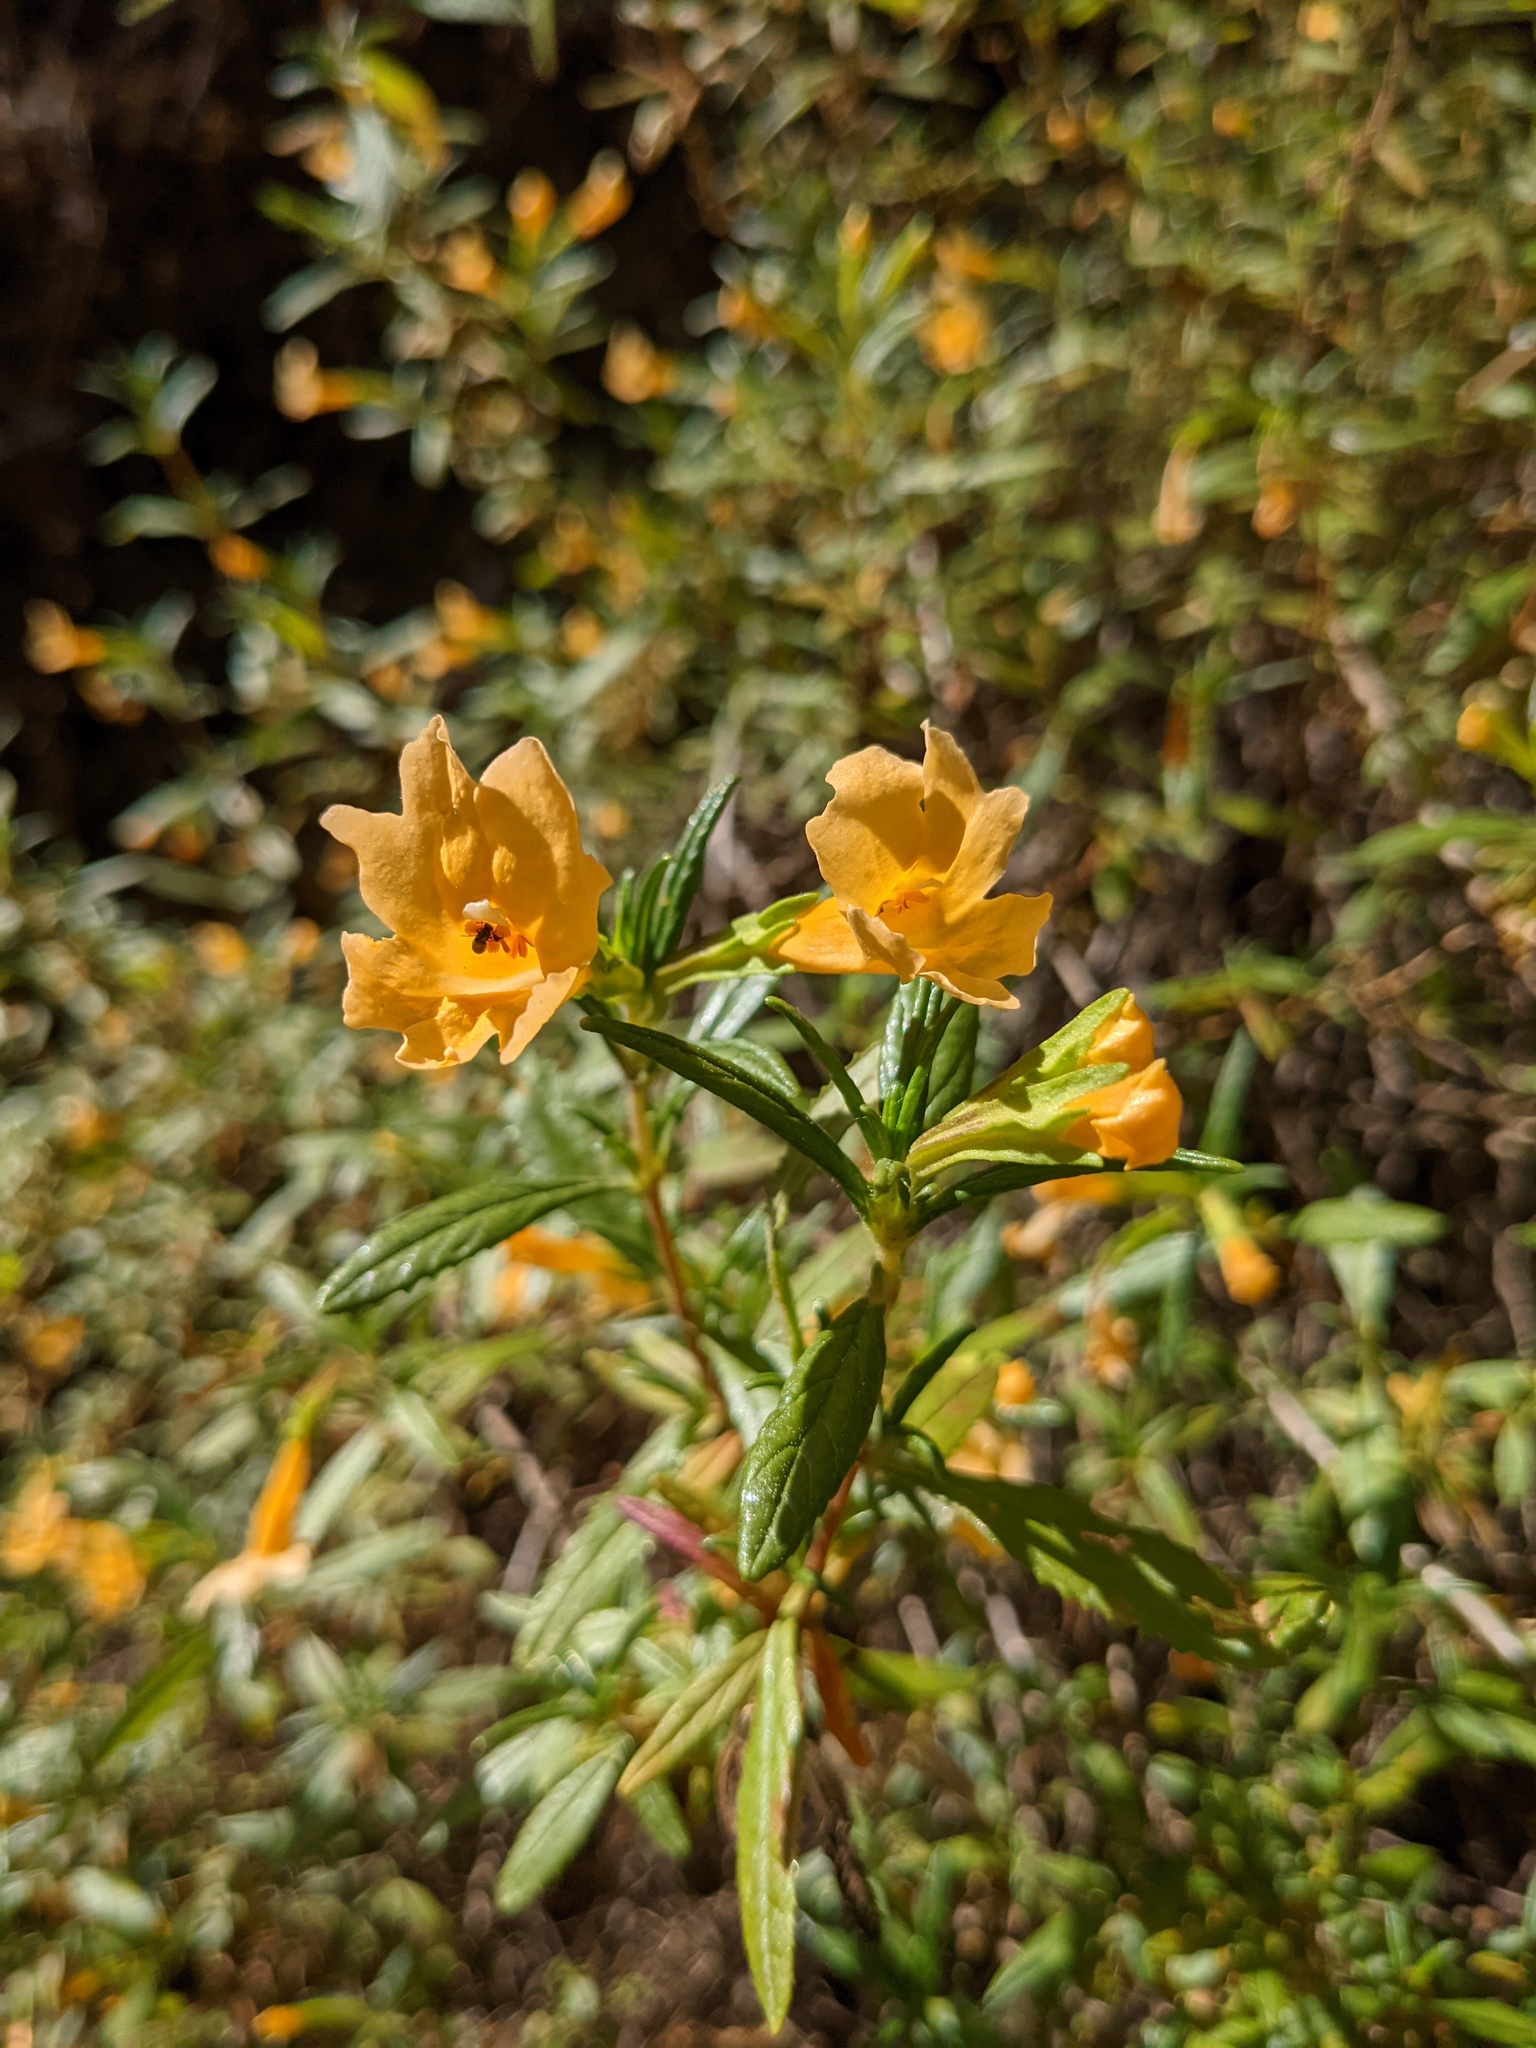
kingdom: Plantae
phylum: Tracheophyta
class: Magnoliopsida
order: Lamiales
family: Phrymaceae
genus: Diplacus
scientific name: Diplacus aurantiacus
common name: Bush monkey-flower
